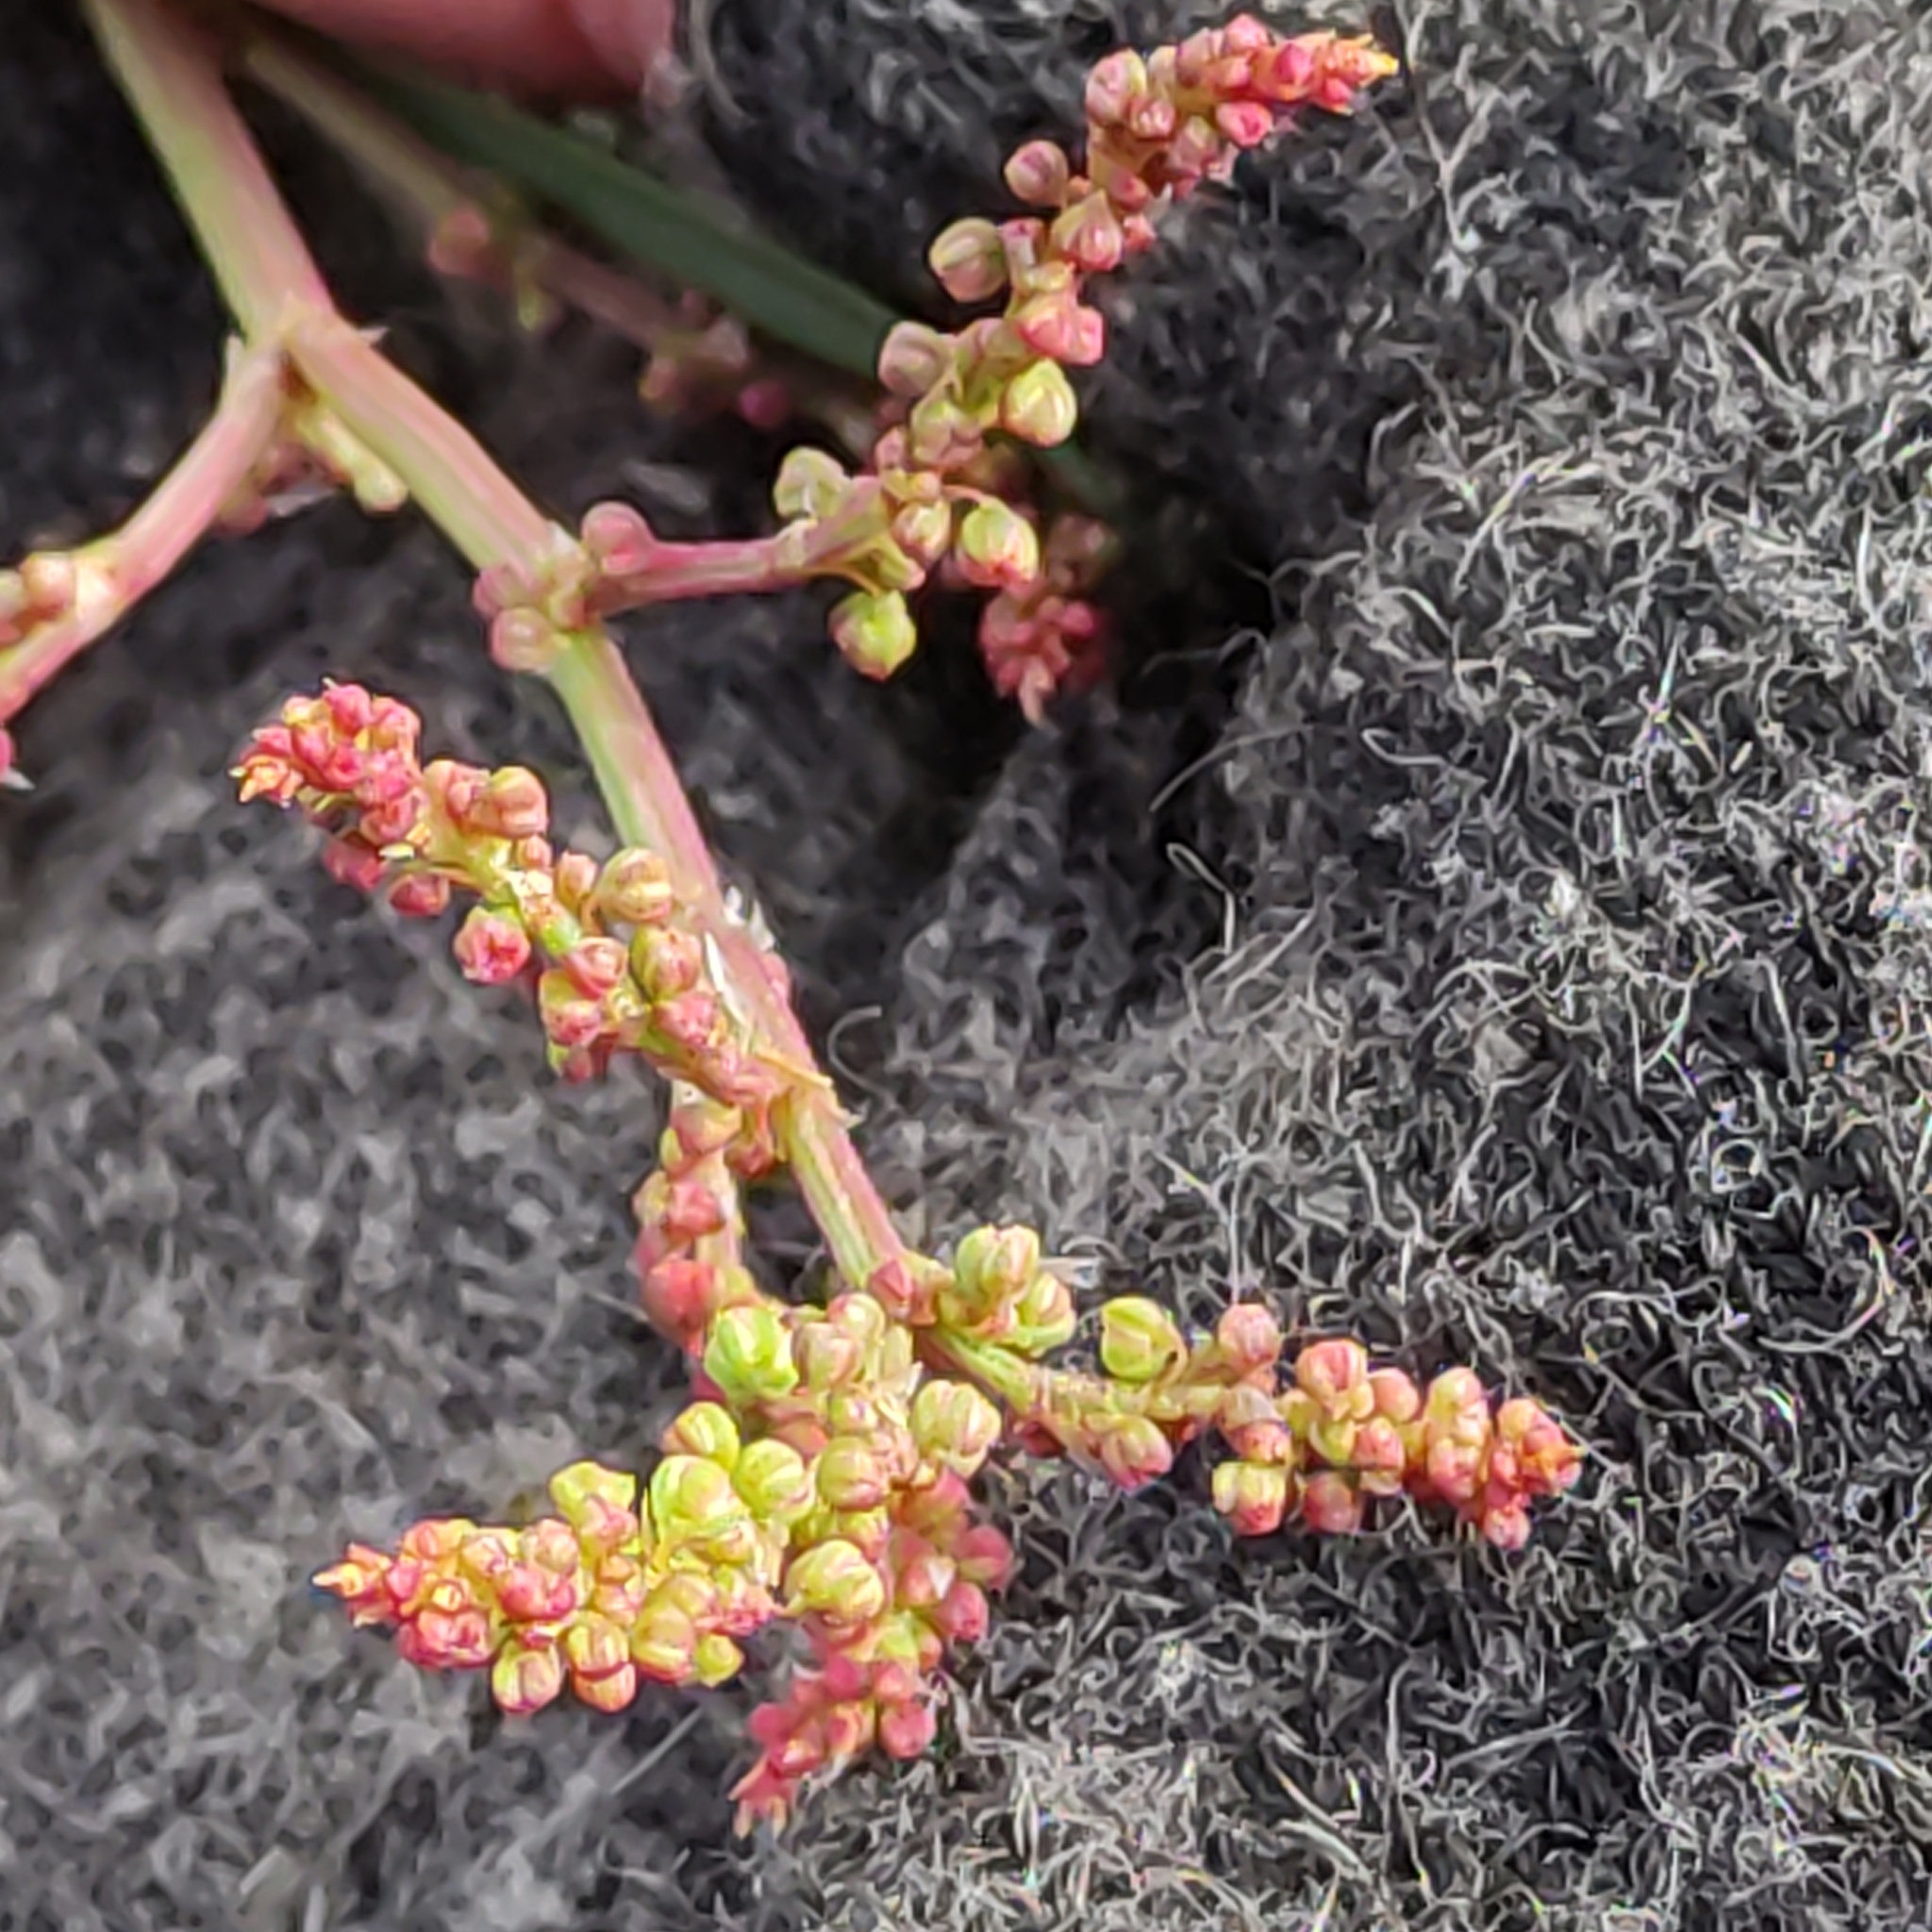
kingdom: Plantae
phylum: Tracheophyta
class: Magnoliopsida
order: Caryophyllales
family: Polygonaceae
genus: Rumex
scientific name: Rumex acetosella
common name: Common sheep sorrel
